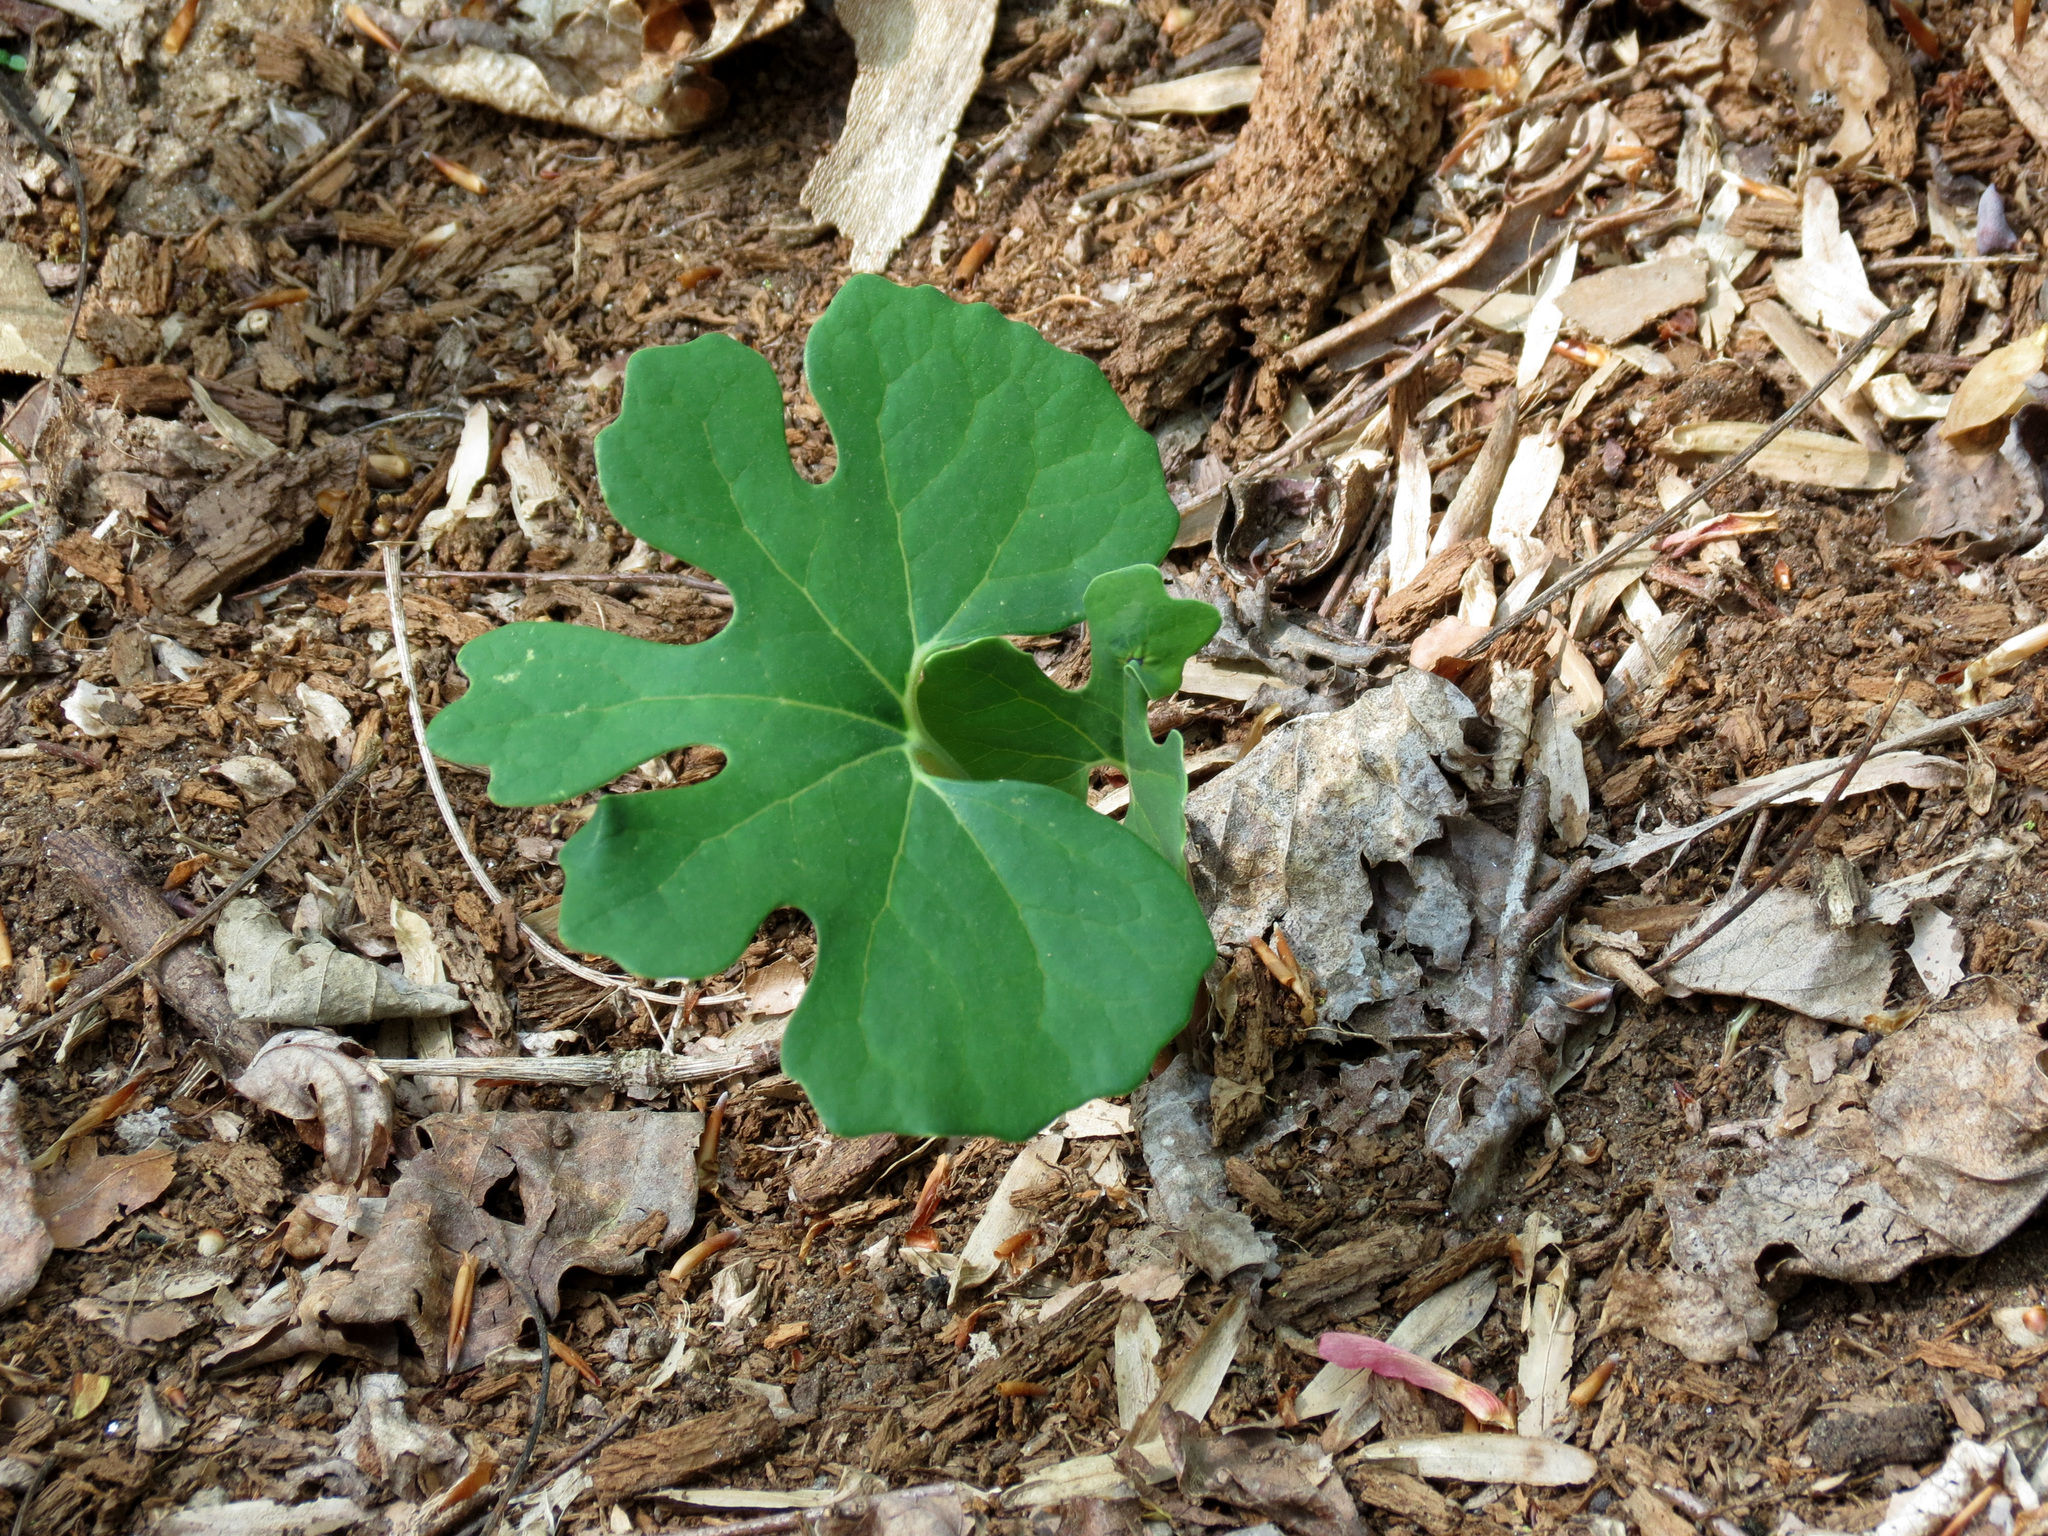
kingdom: Plantae
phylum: Tracheophyta
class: Magnoliopsida
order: Ranunculales
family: Papaveraceae
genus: Sanguinaria
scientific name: Sanguinaria canadensis
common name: Bloodroot
